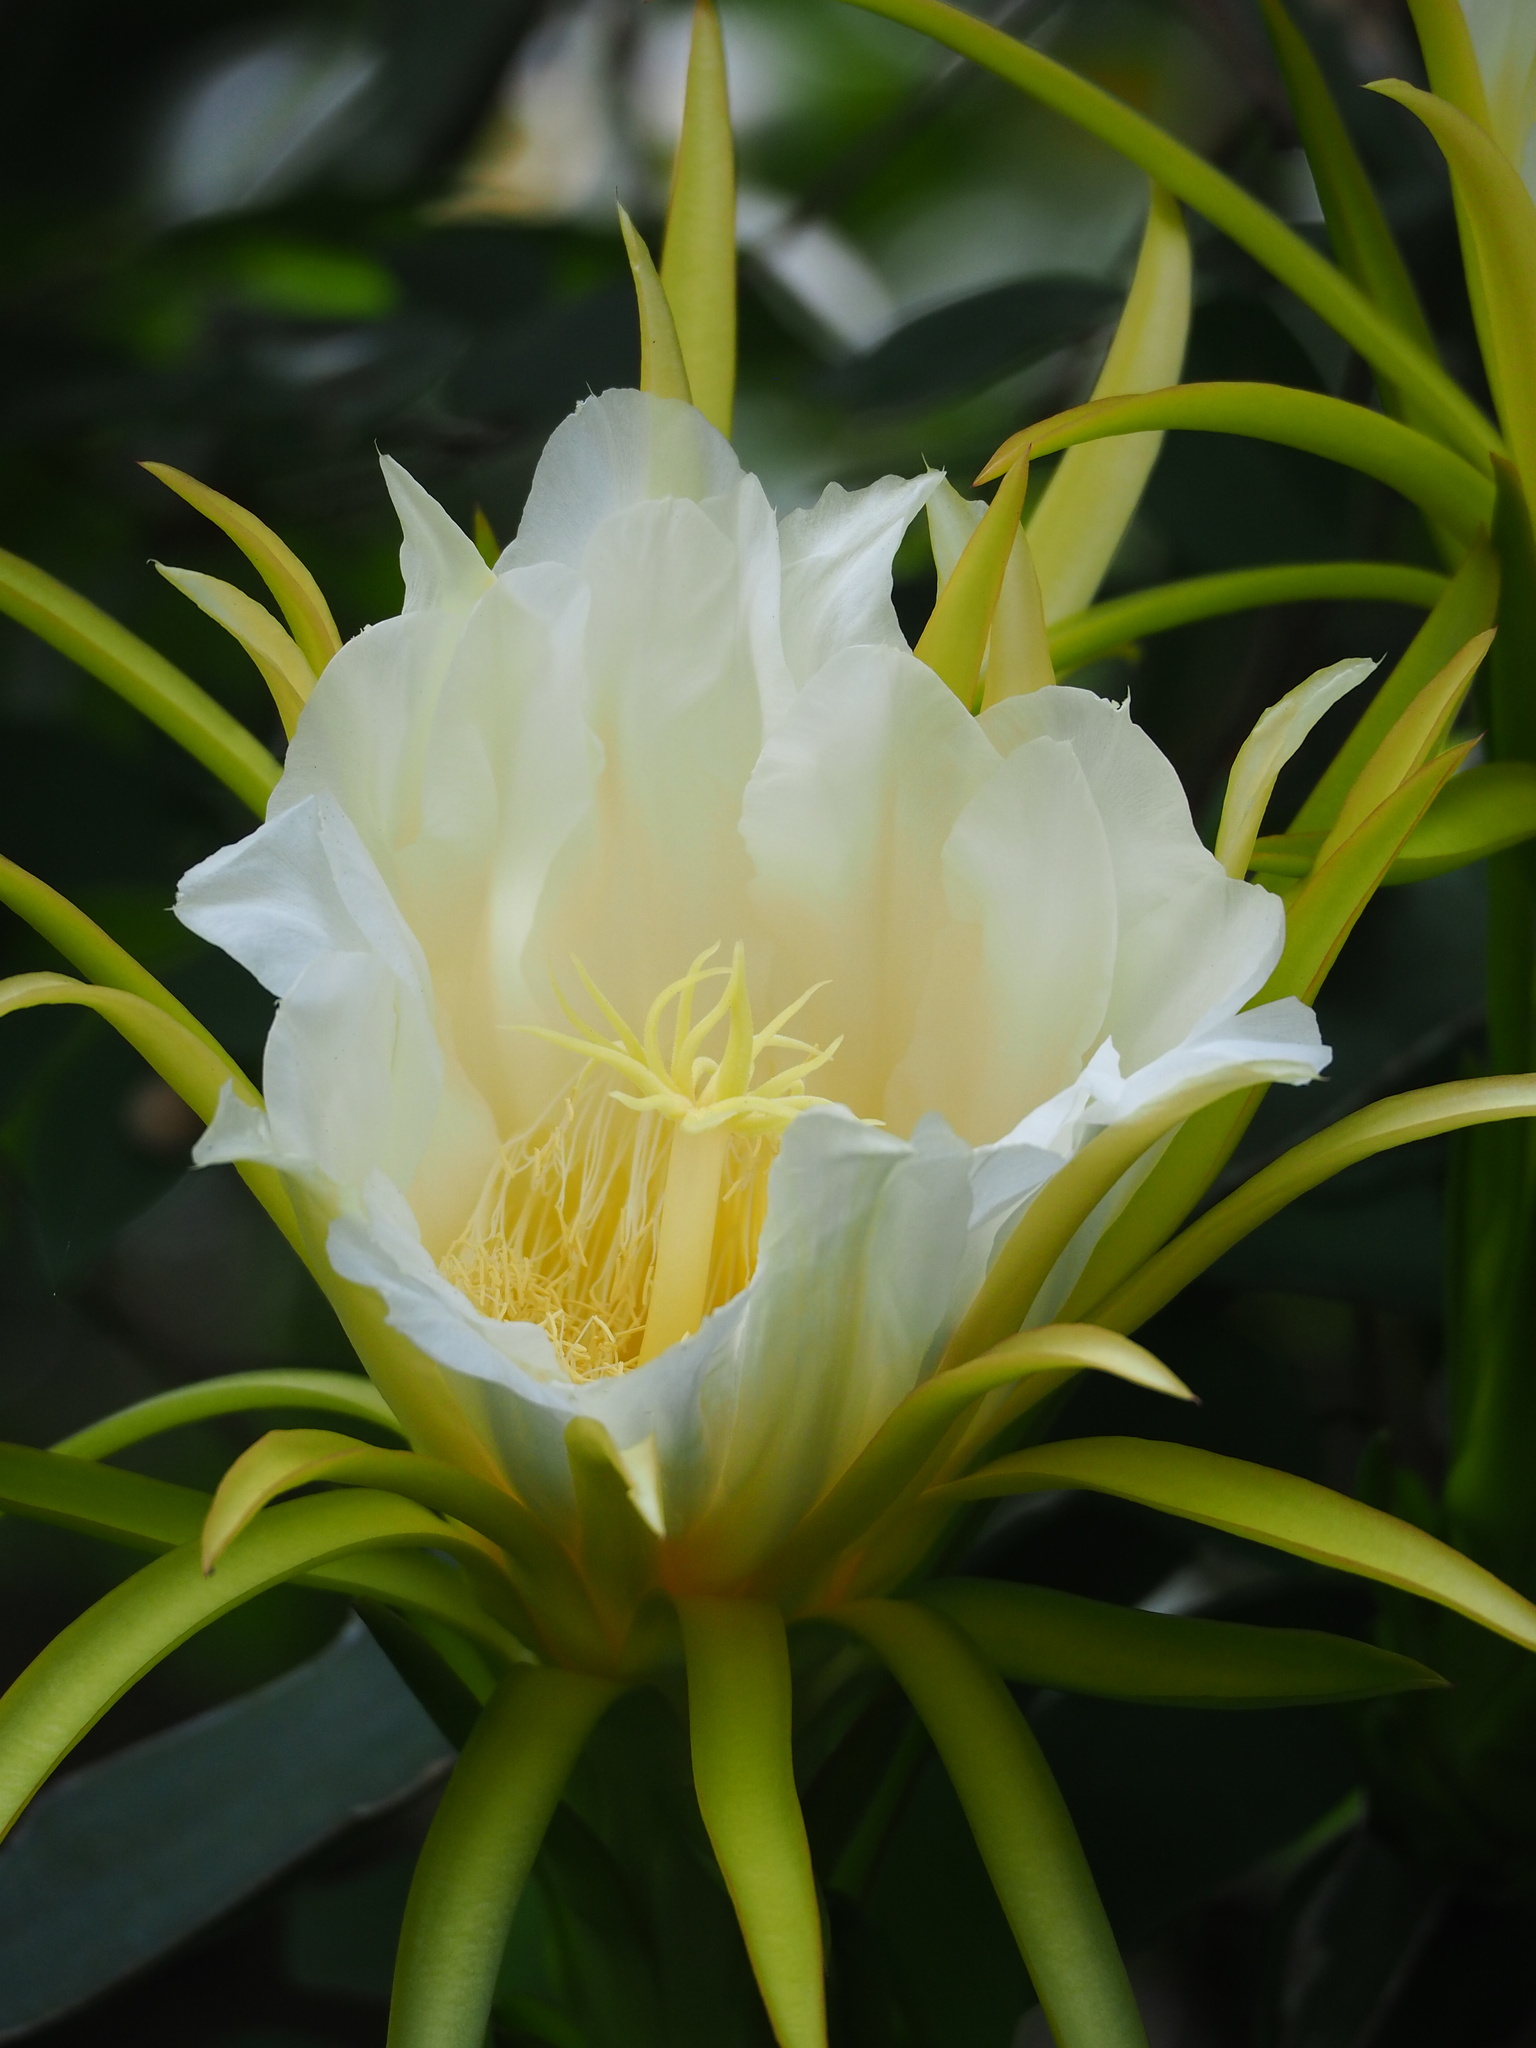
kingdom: Plantae
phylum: Tracheophyta
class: Magnoliopsida
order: Caryophyllales
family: Cactaceae
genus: Selenicereus
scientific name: Selenicereus undatus
